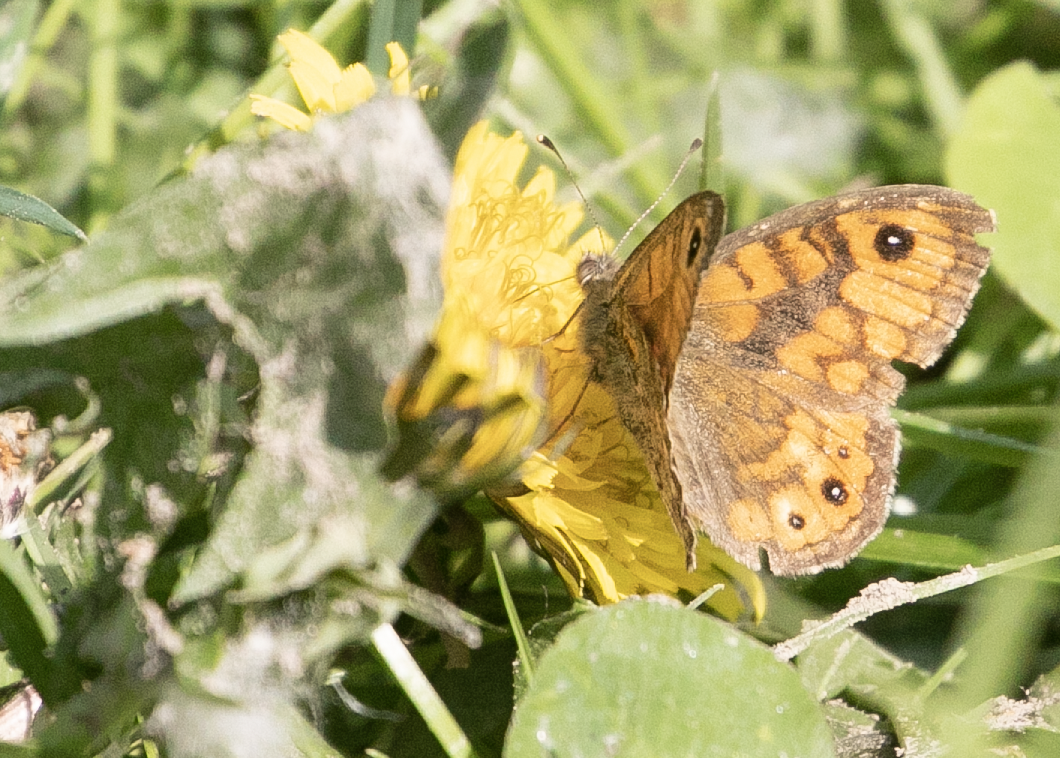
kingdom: Animalia
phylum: Arthropoda
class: Insecta
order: Lepidoptera
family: Nymphalidae
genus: Pararge
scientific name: Pararge Lasiommata megera
